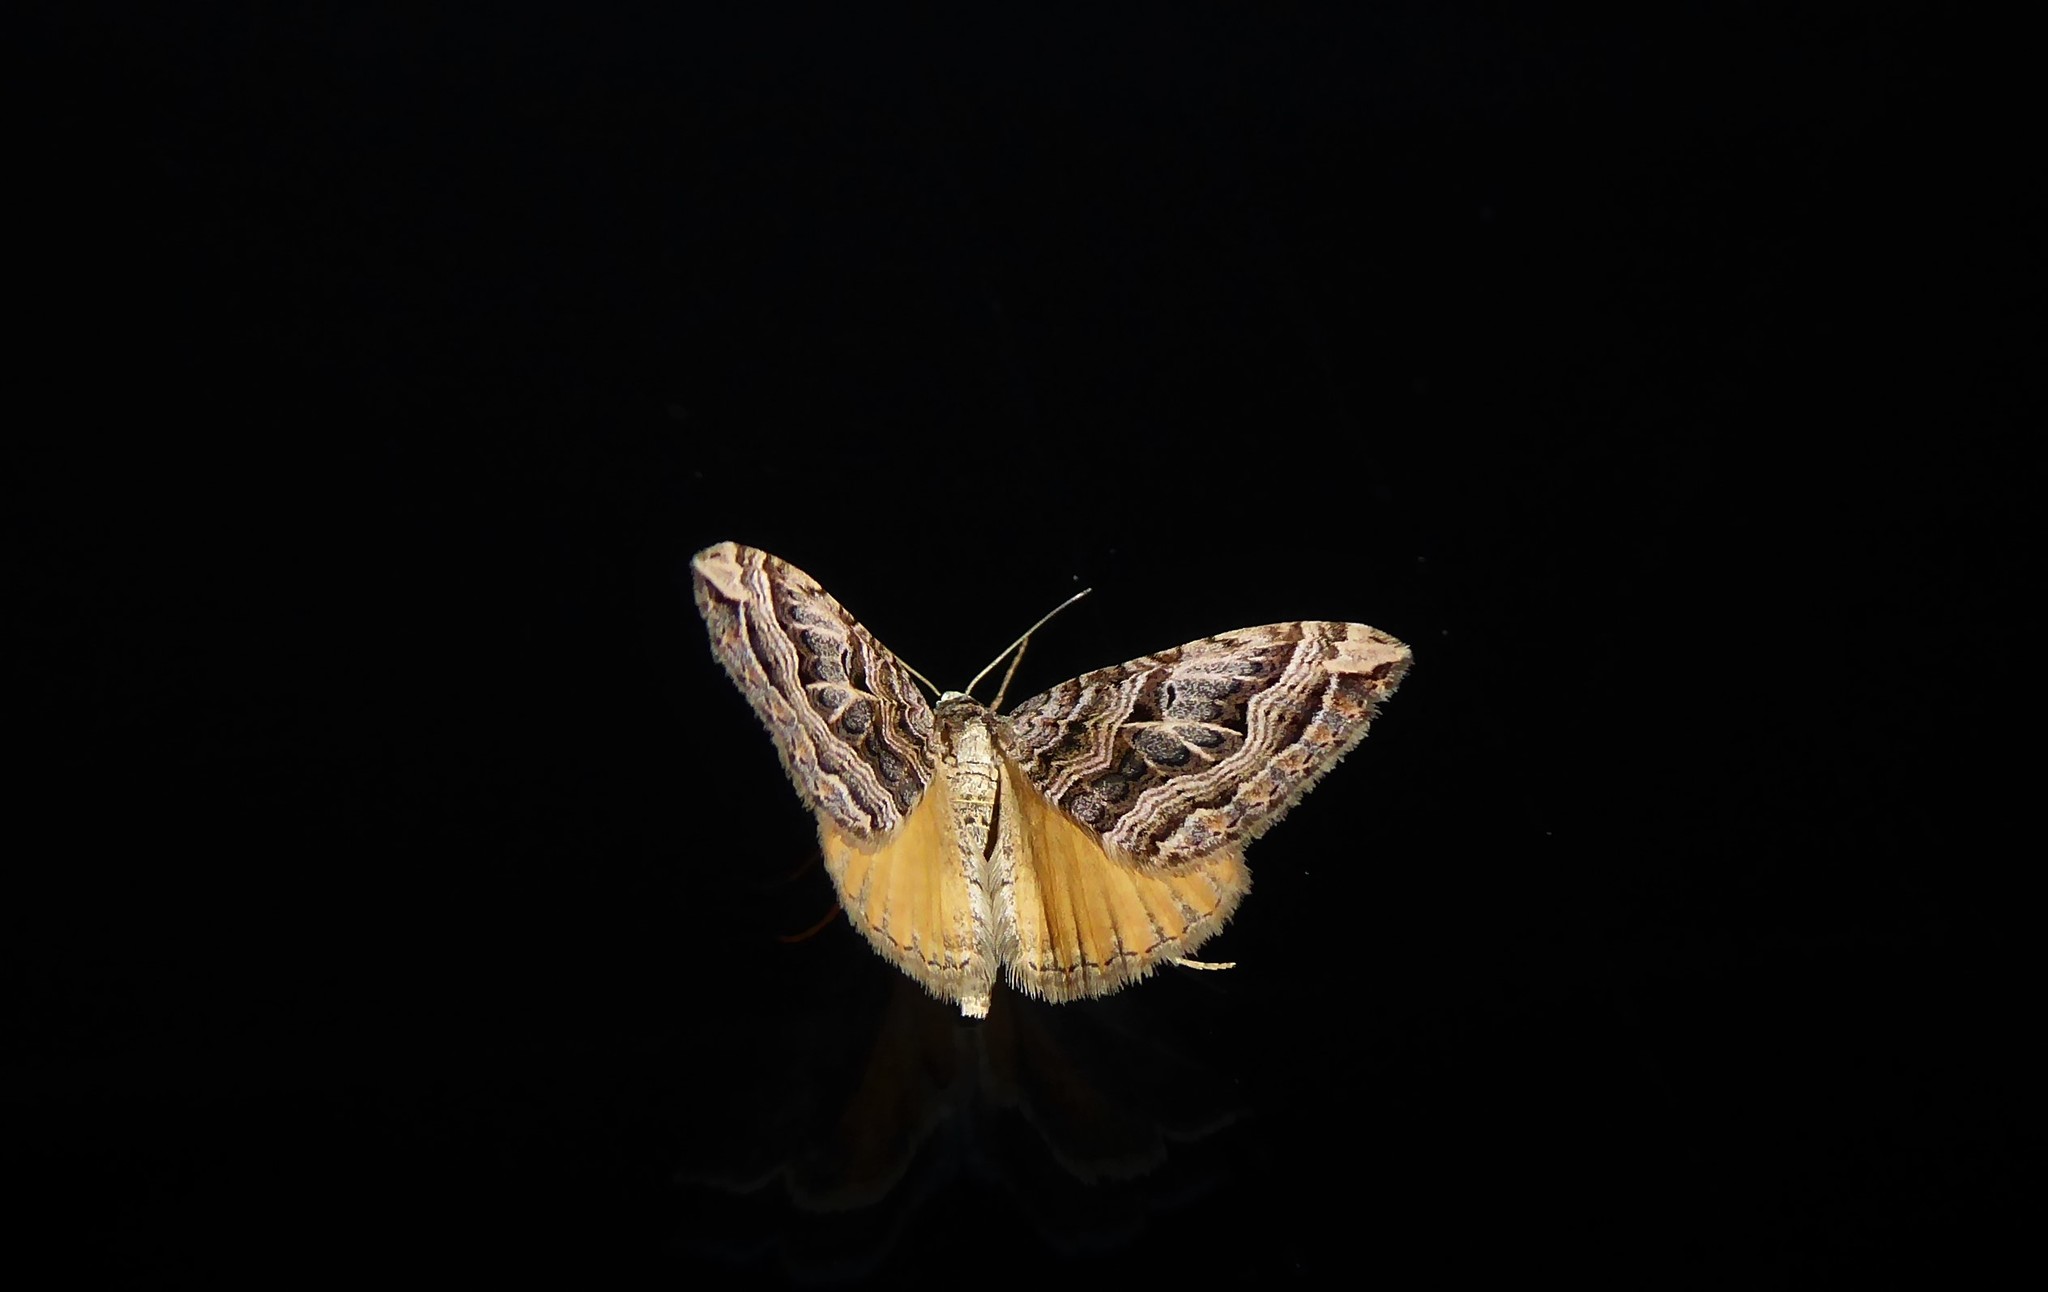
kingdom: Animalia
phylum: Arthropoda
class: Insecta
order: Lepidoptera
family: Geometridae
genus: Xanthorhoe
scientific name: Xanthorhoe semifissata
